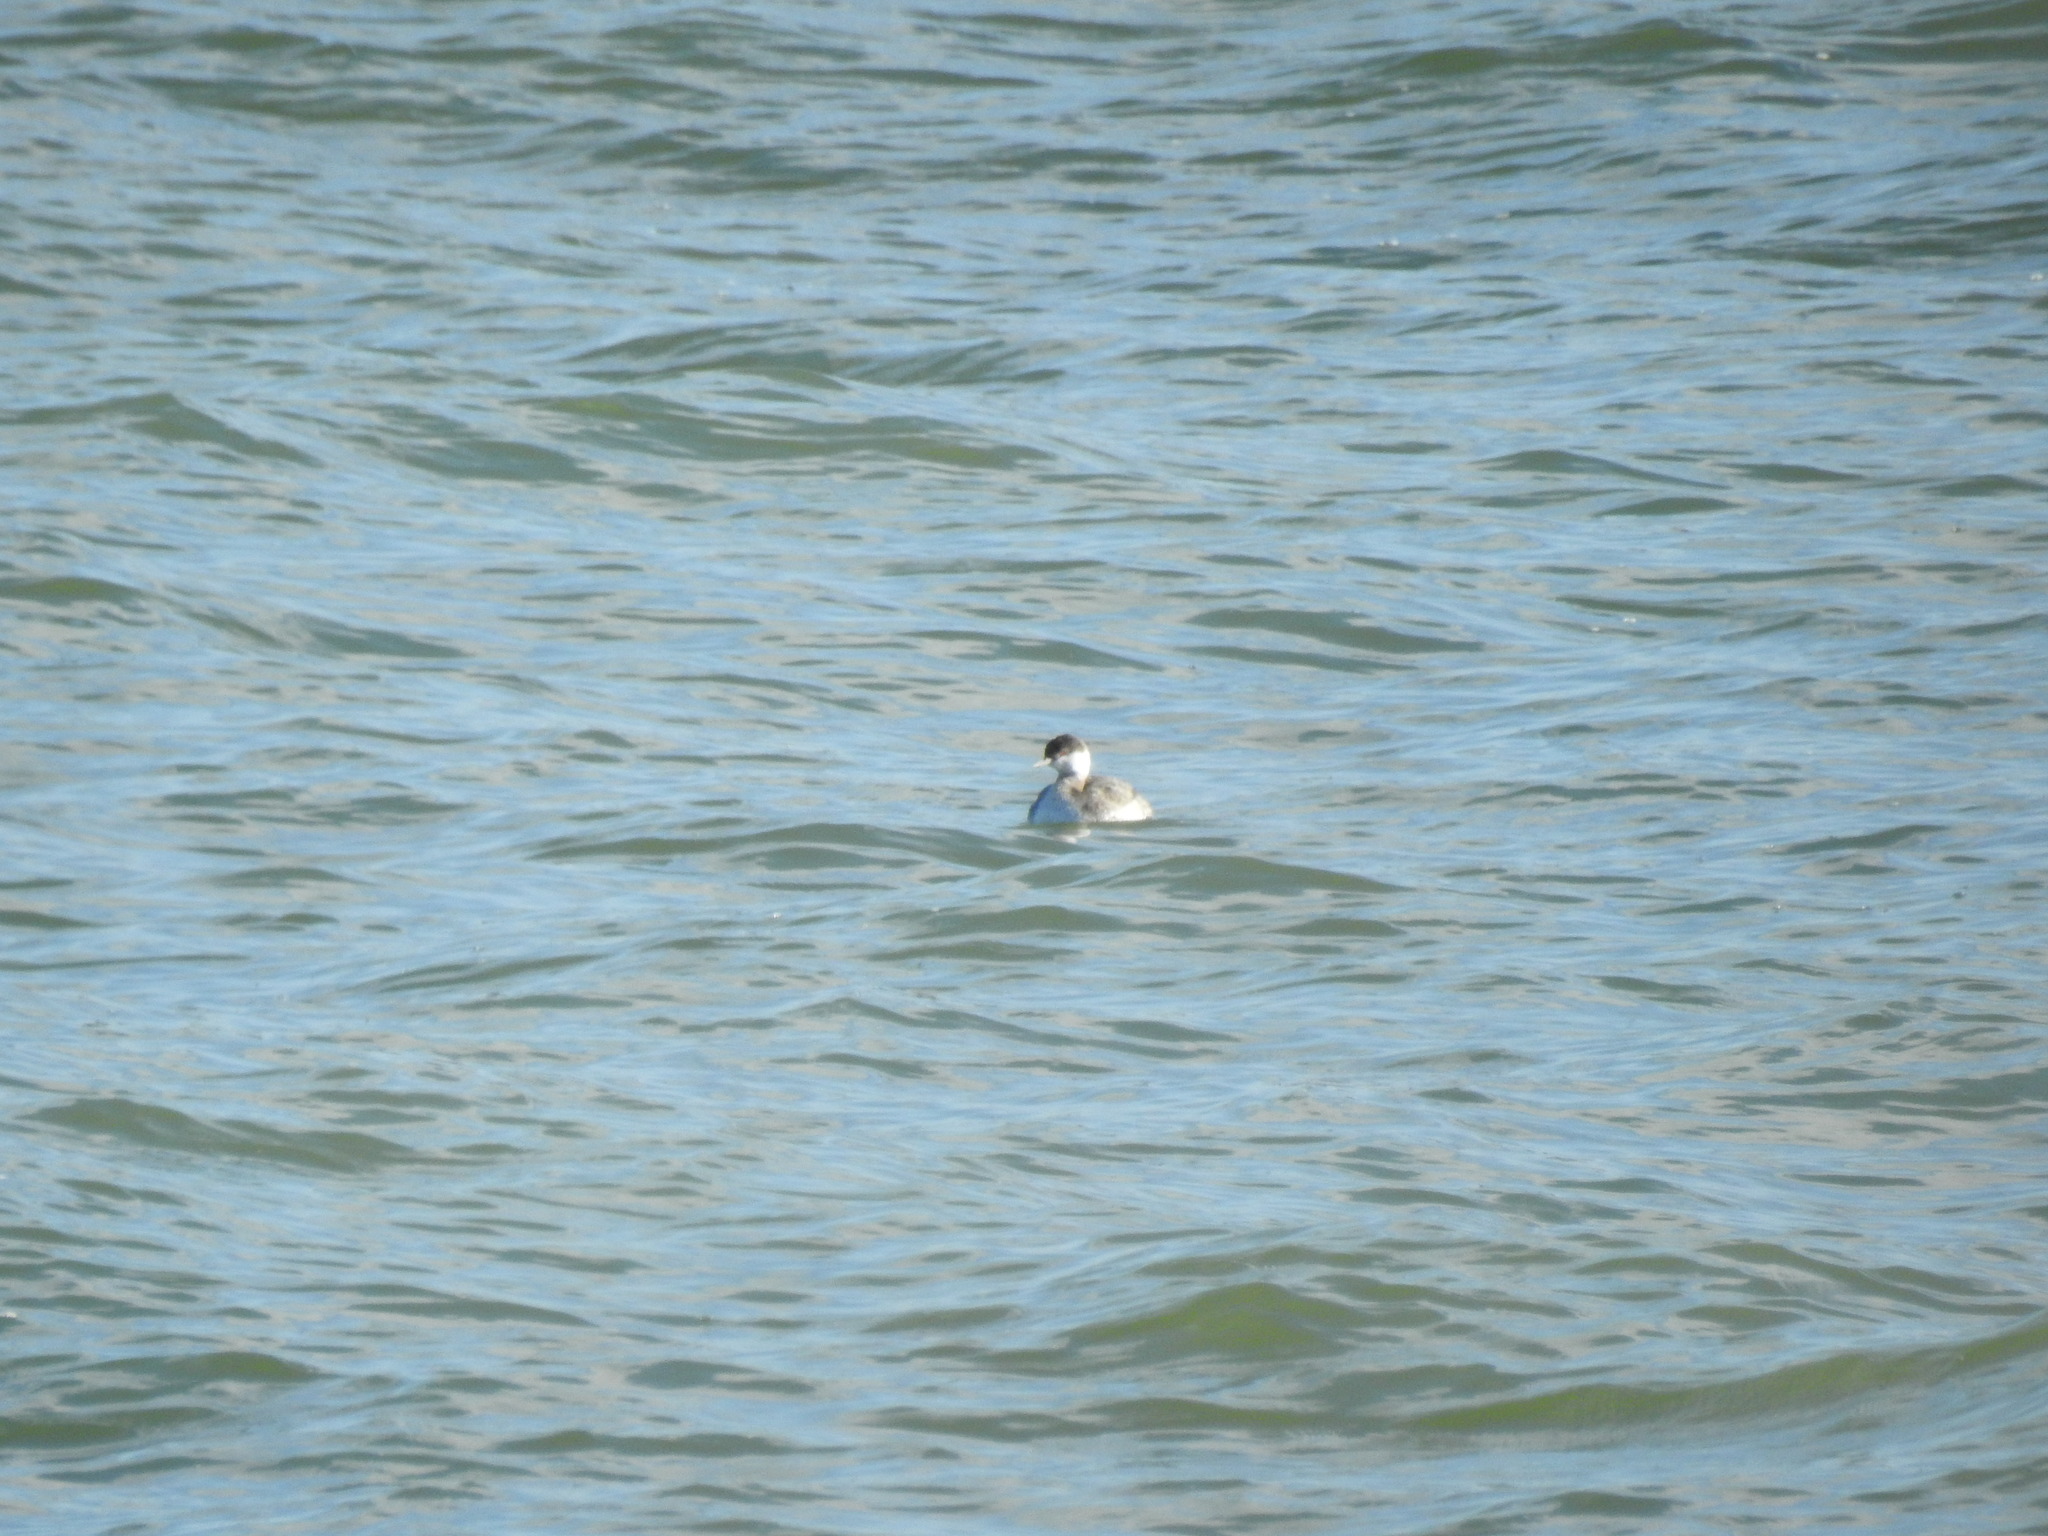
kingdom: Animalia
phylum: Chordata
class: Aves
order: Podicipediformes
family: Podicipedidae
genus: Podiceps
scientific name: Podiceps auritus
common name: Horned grebe
